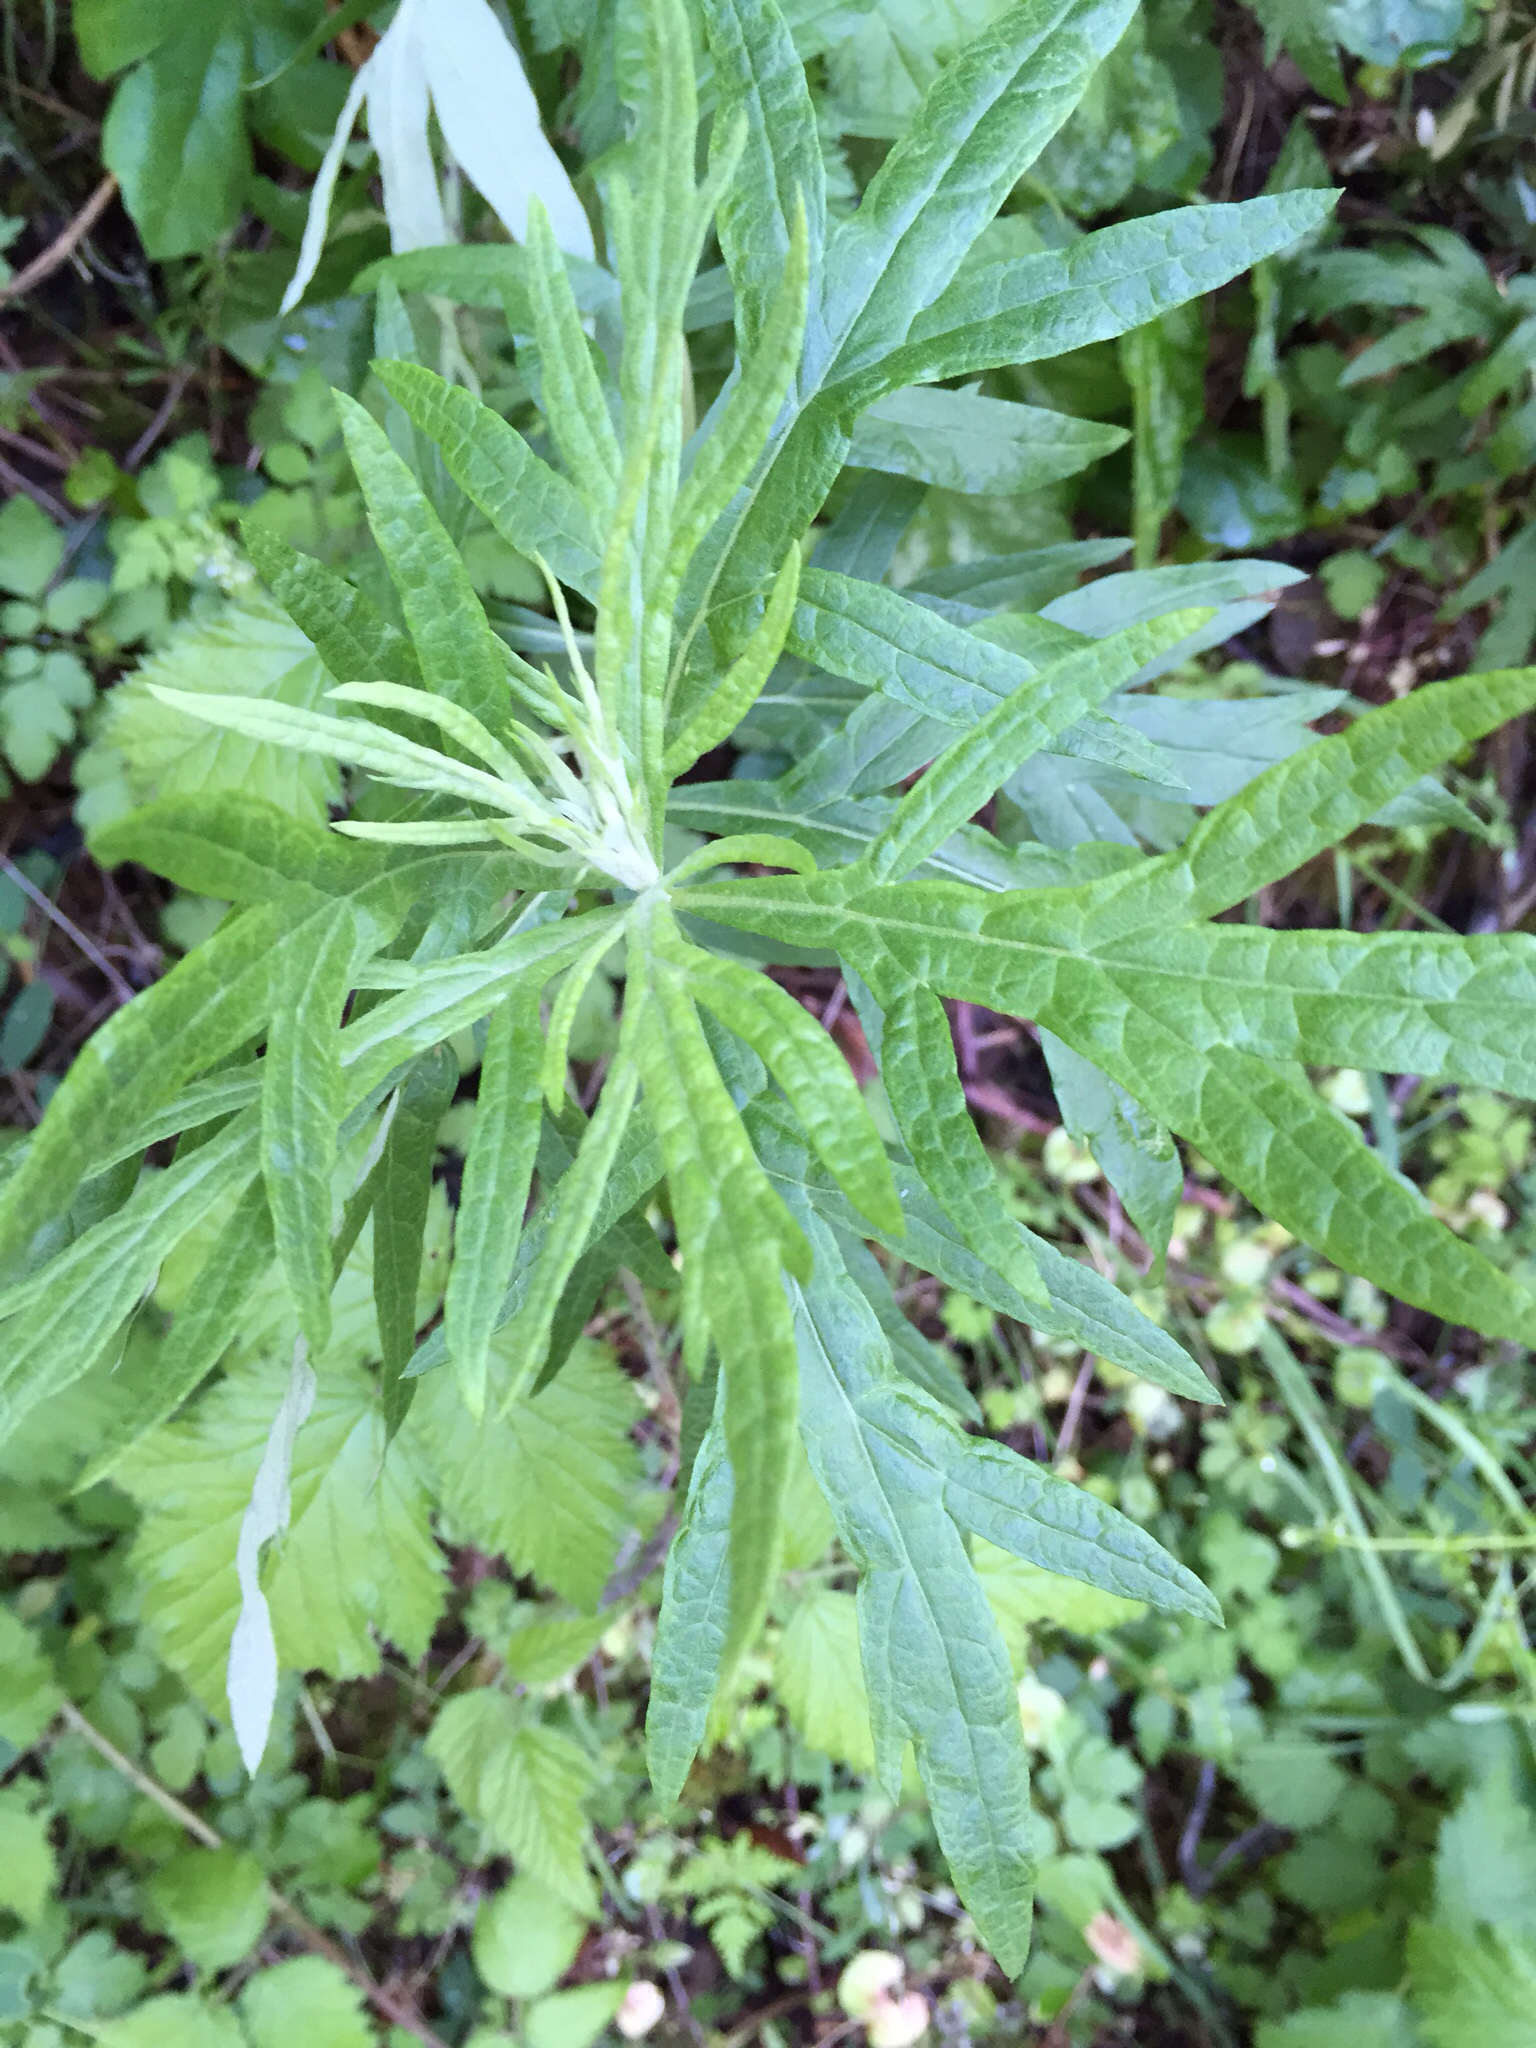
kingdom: Plantae
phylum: Tracheophyta
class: Magnoliopsida
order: Asterales
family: Asteraceae
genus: Artemisia
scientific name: Artemisia douglasiana
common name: Northwest mugwort
